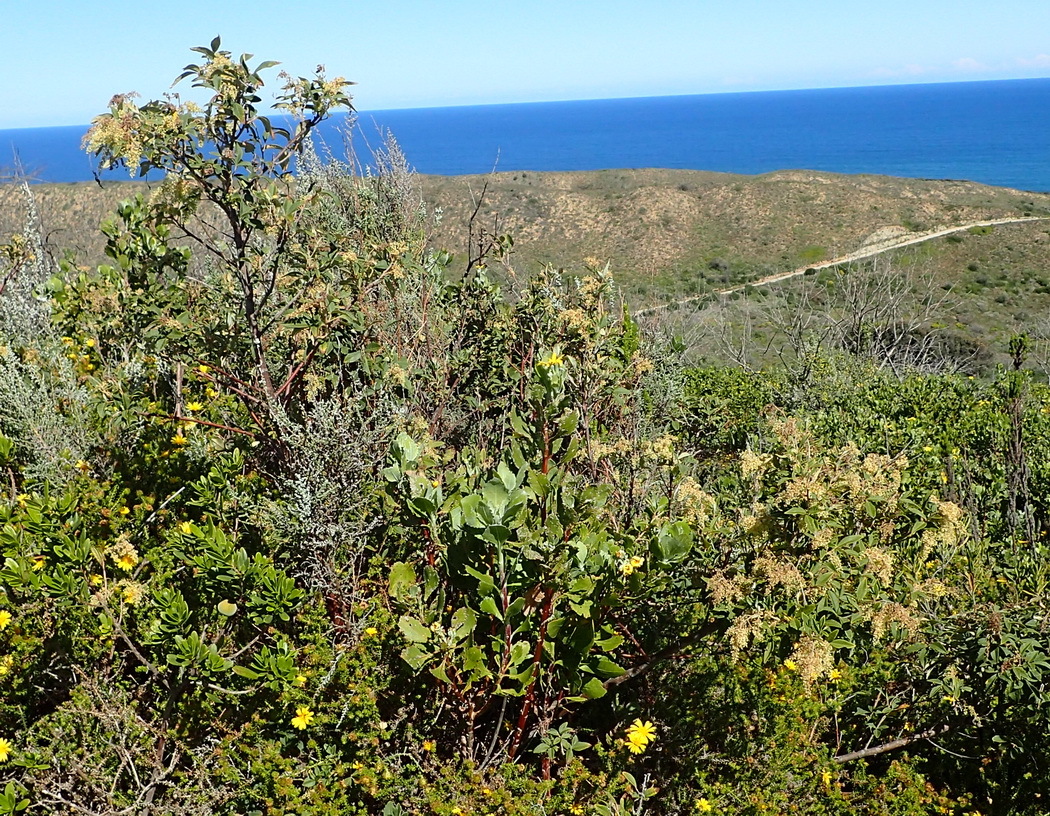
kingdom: Plantae
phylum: Tracheophyta
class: Magnoliopsida
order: Sapindales
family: Anacardiaceae
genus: Searsia
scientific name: Searsia tomentosa
